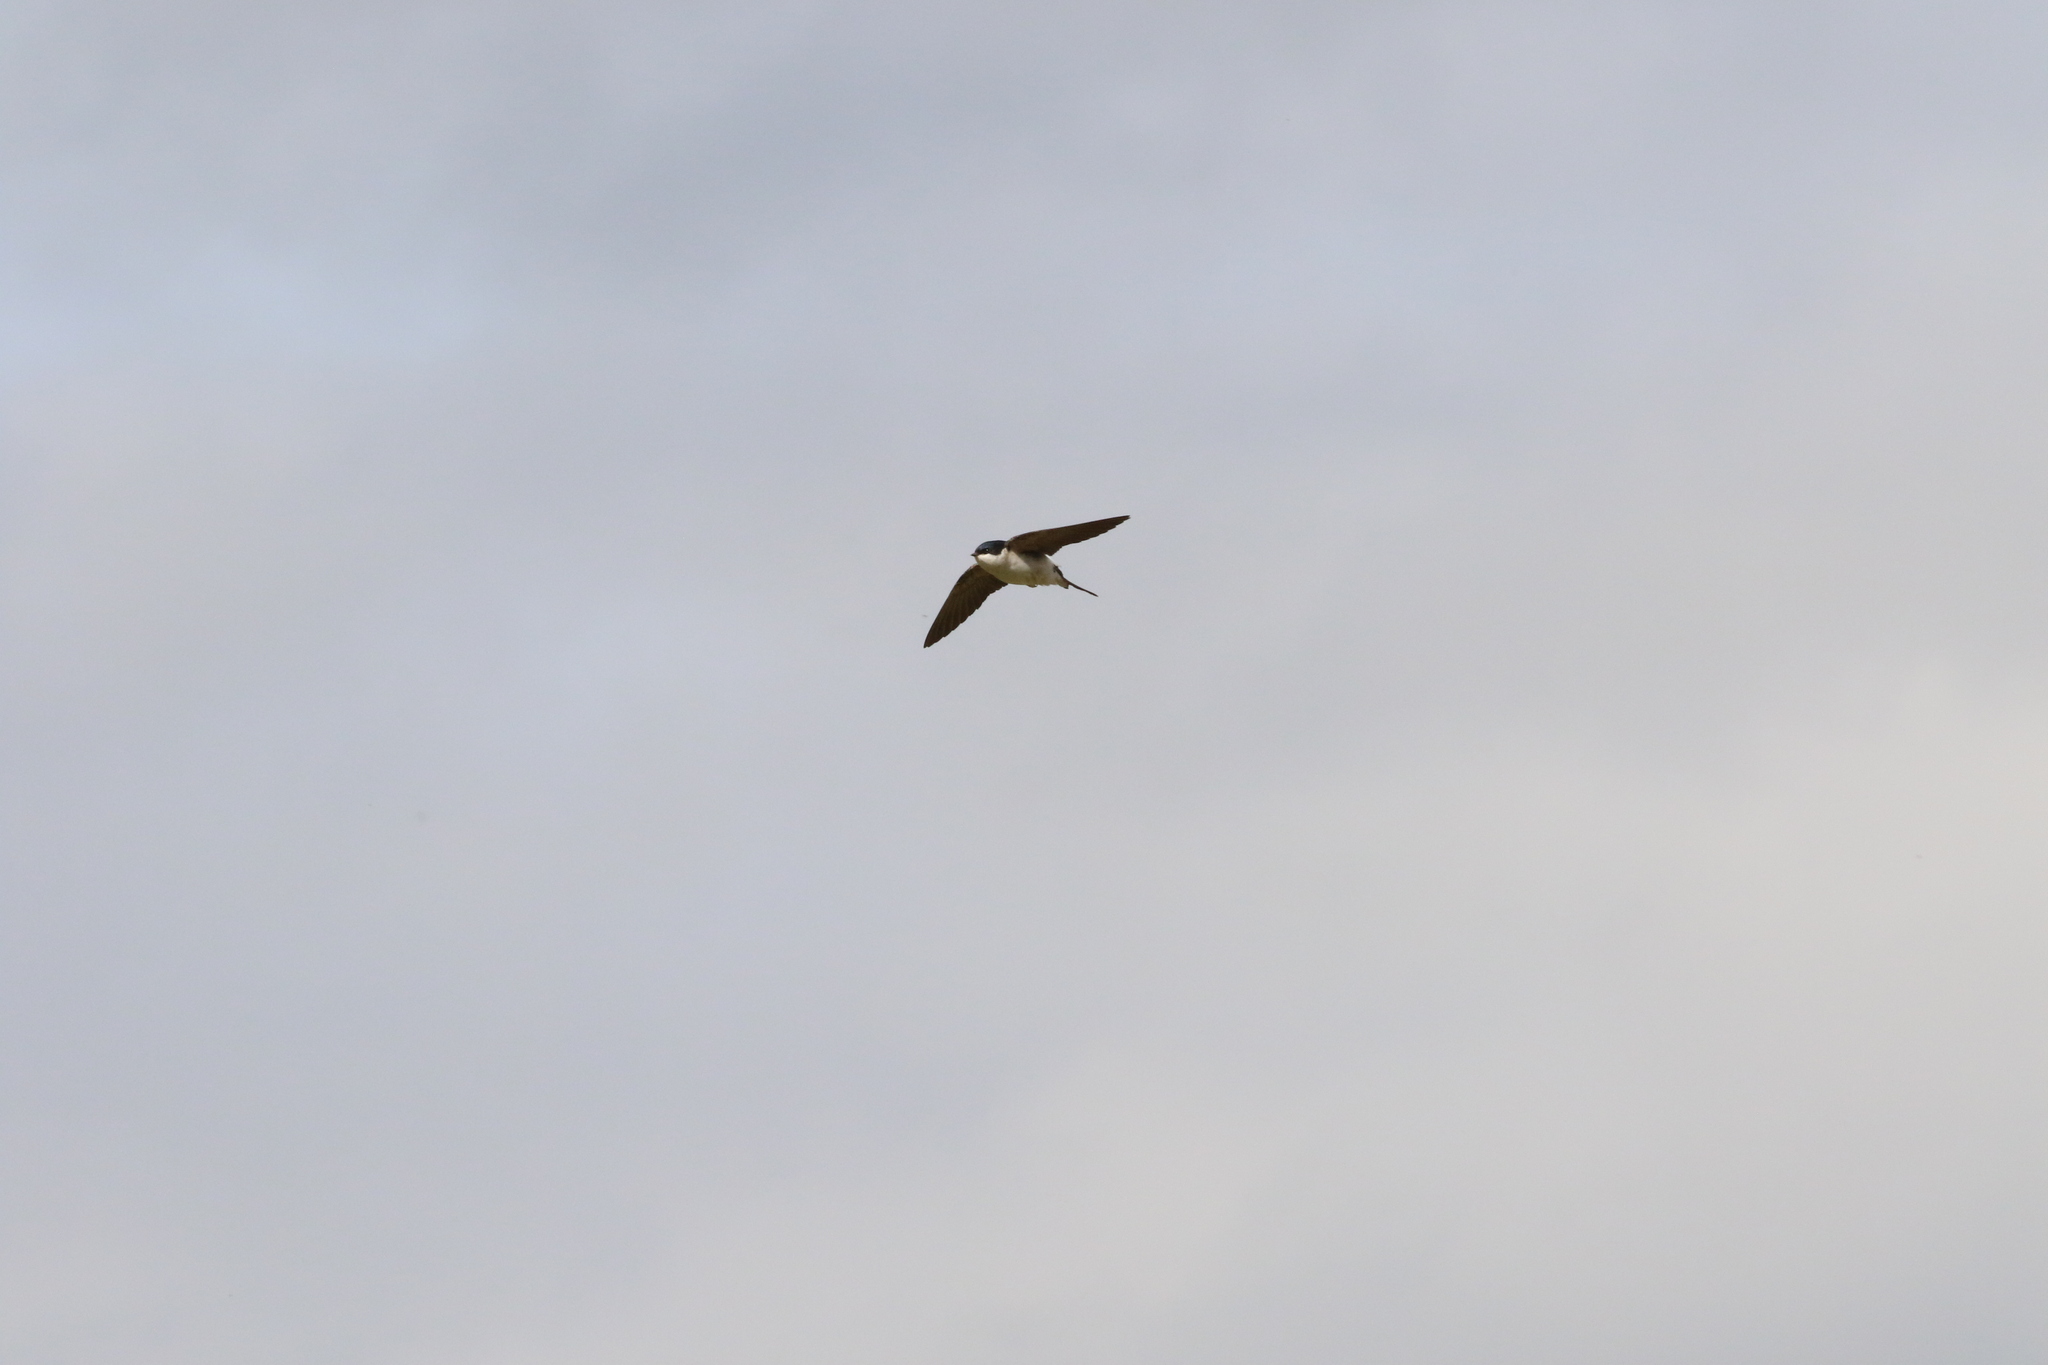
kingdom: Animalia
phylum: Chordata
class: Aves
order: Passeriformes
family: Hirundinidae
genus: Delichon
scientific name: Delichon urbicum
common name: Common house martin
